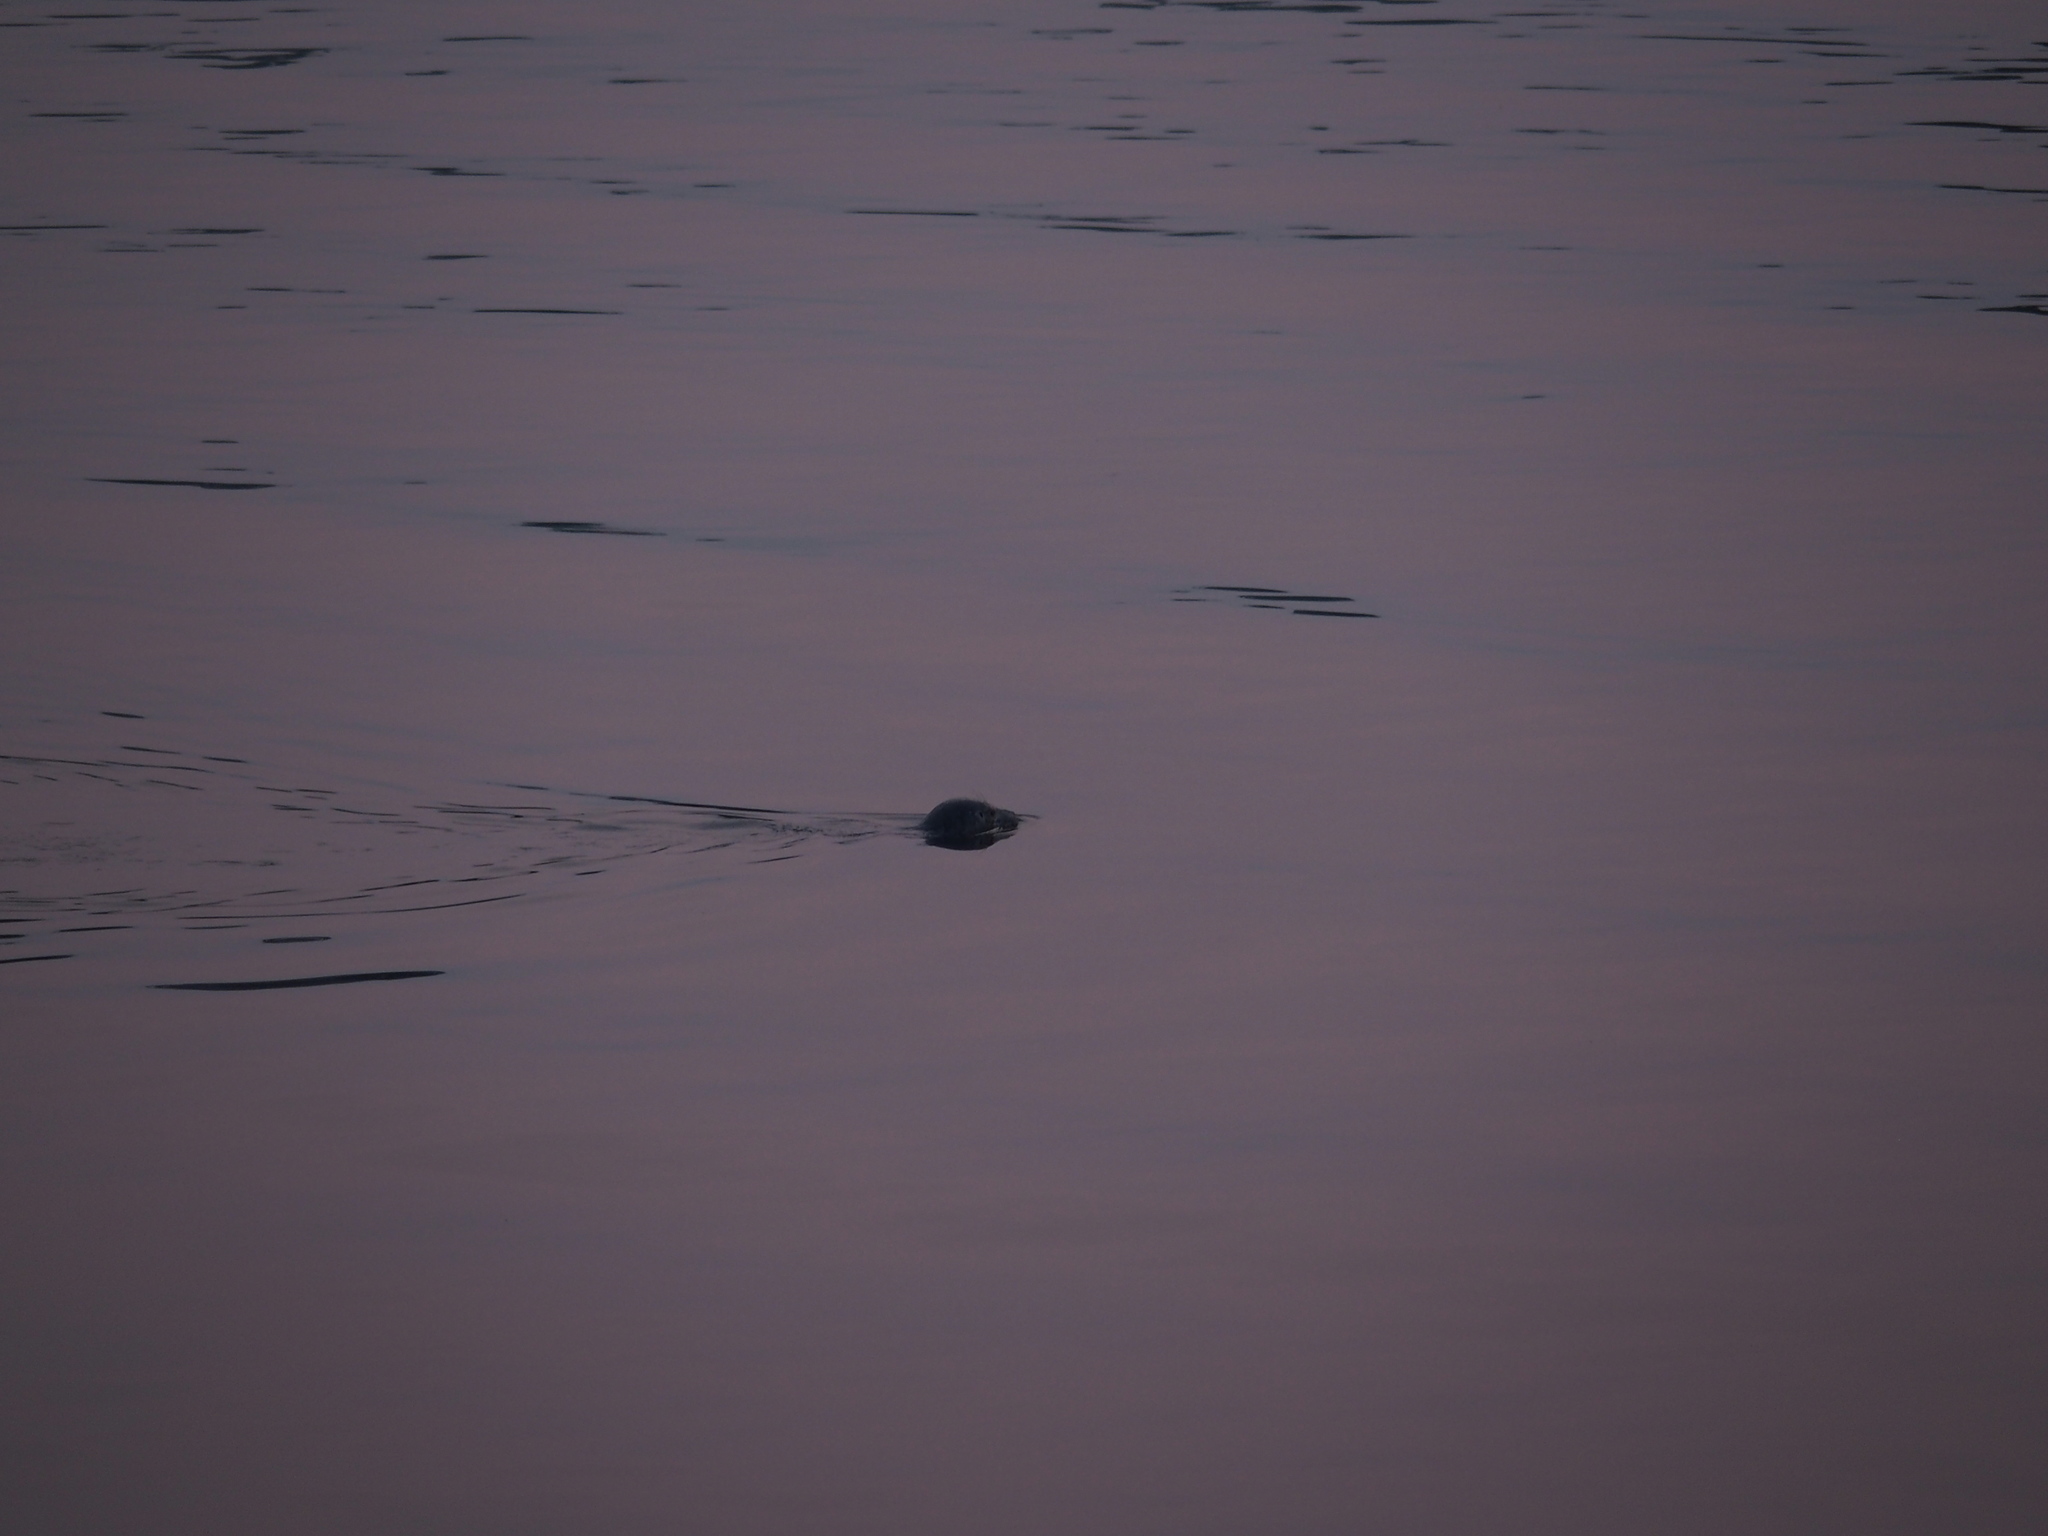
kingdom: Animalia
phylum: Chordata
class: Mammalia
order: Carnivora
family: Phocidae
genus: Phoca
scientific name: Phoca vitulina
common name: Harbor seal
